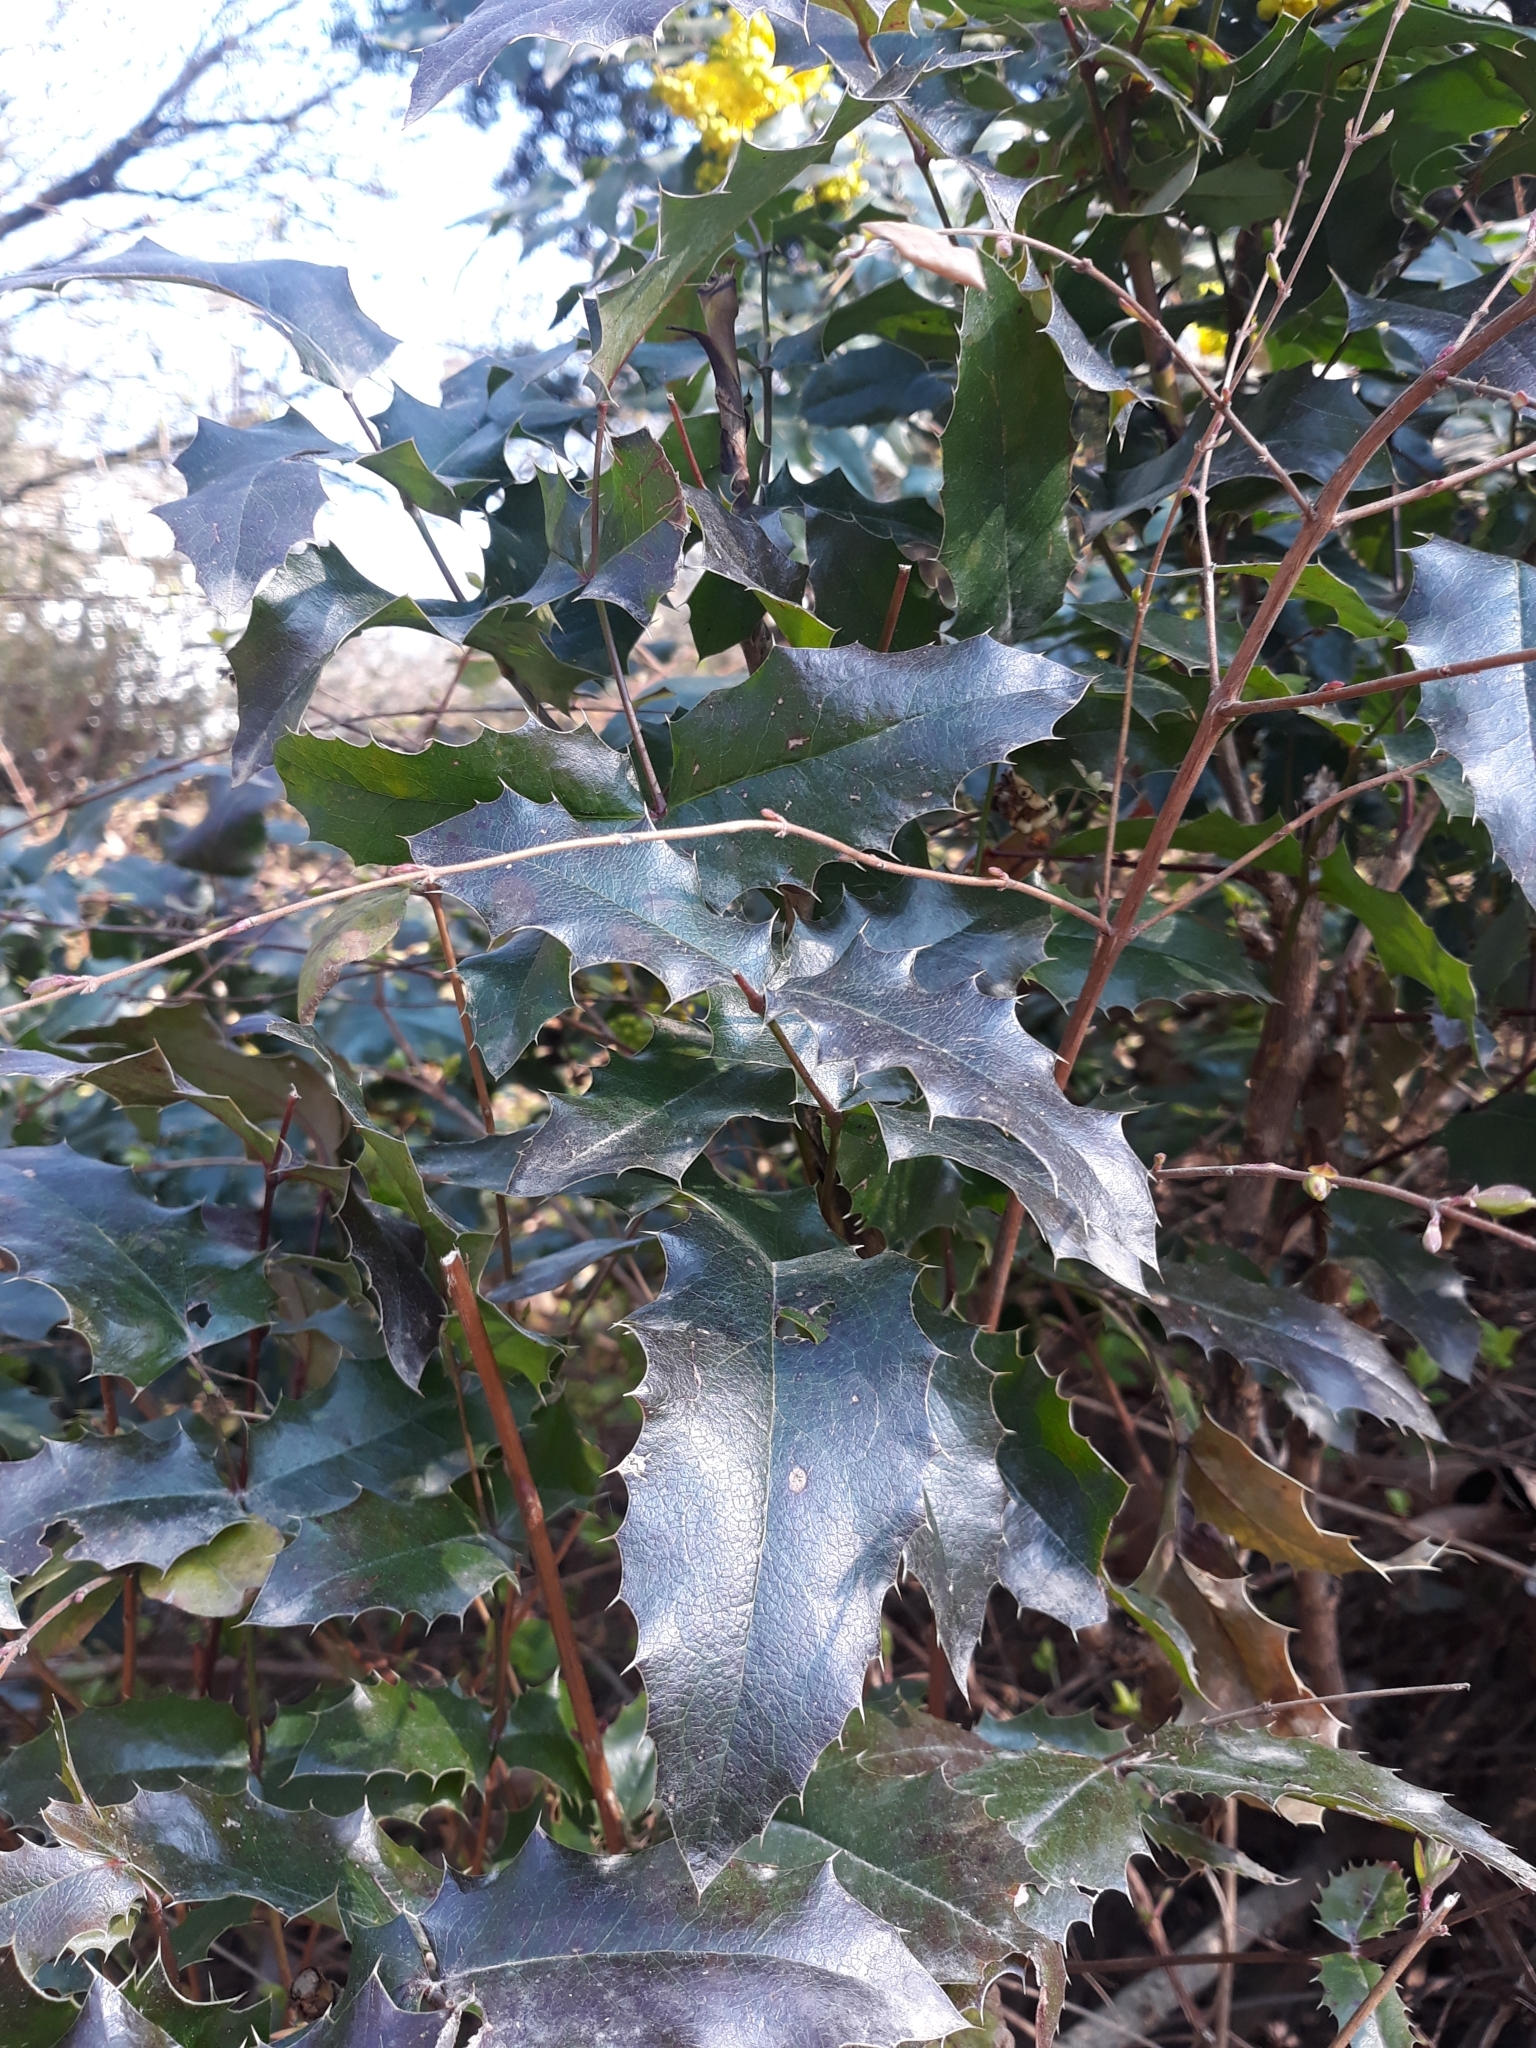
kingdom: Plantae
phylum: Tracheophyta
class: Magnoliopsida
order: Ranunculales
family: Berberidaceae
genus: Mahonia
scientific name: Mahonia aquifolium
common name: Oregon-grape
